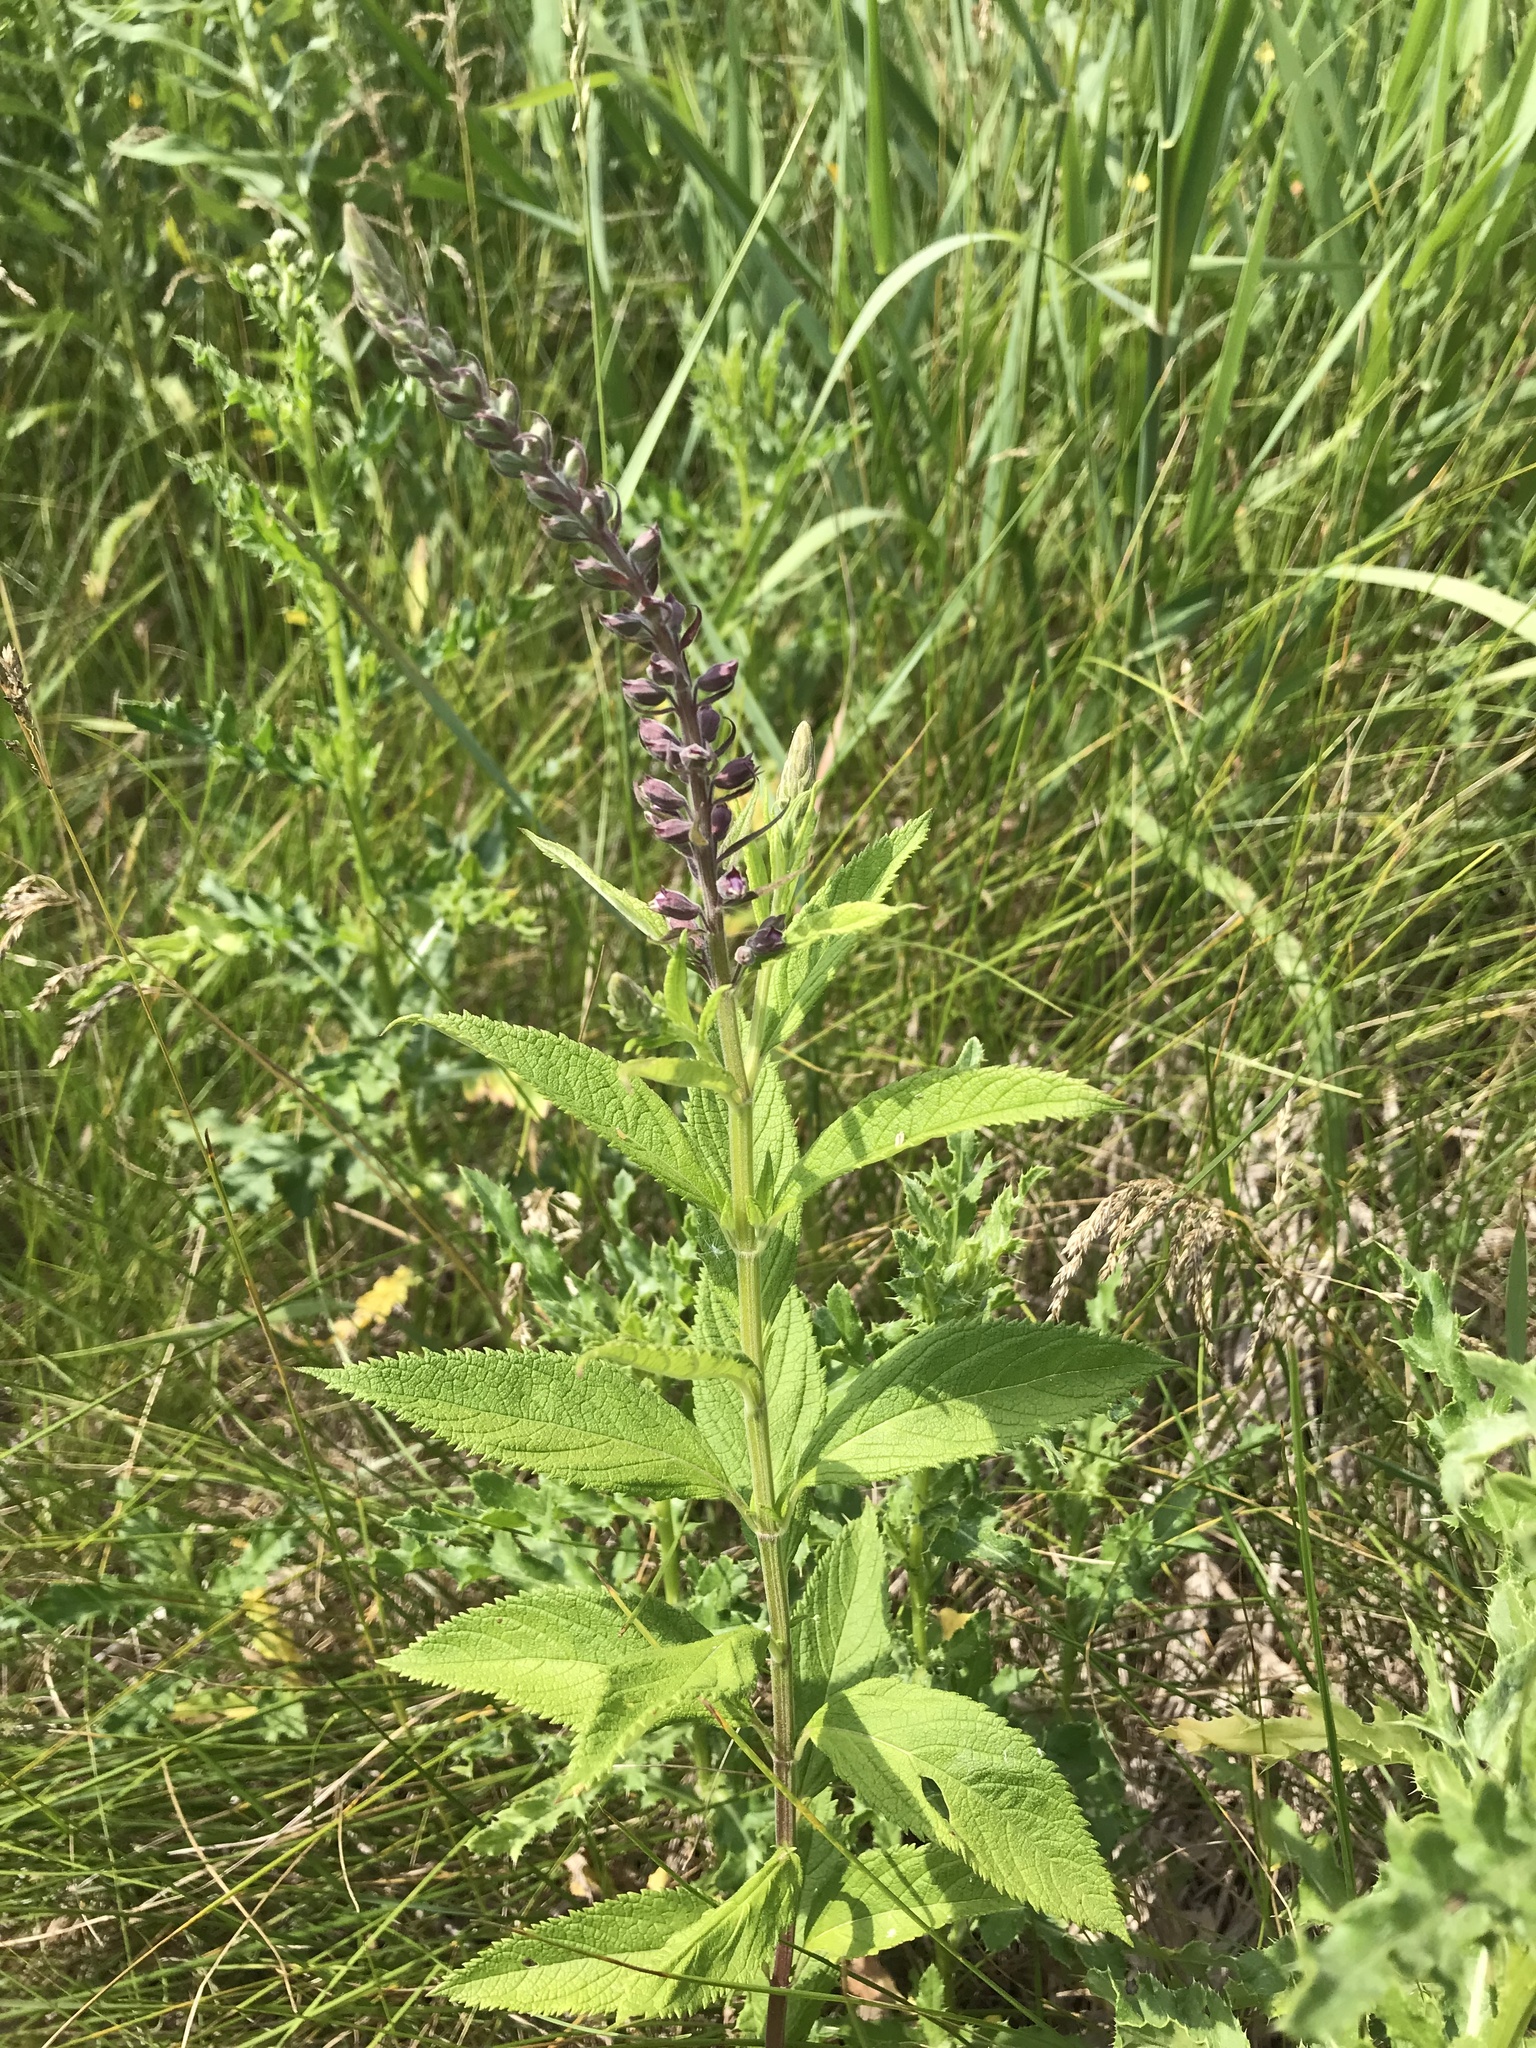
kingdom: Plantae
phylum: Tracheophyta
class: Magnoliopsida
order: Lamiales
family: Lamiaceae
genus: Teucrium
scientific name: Teucrium canadense
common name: American germander
